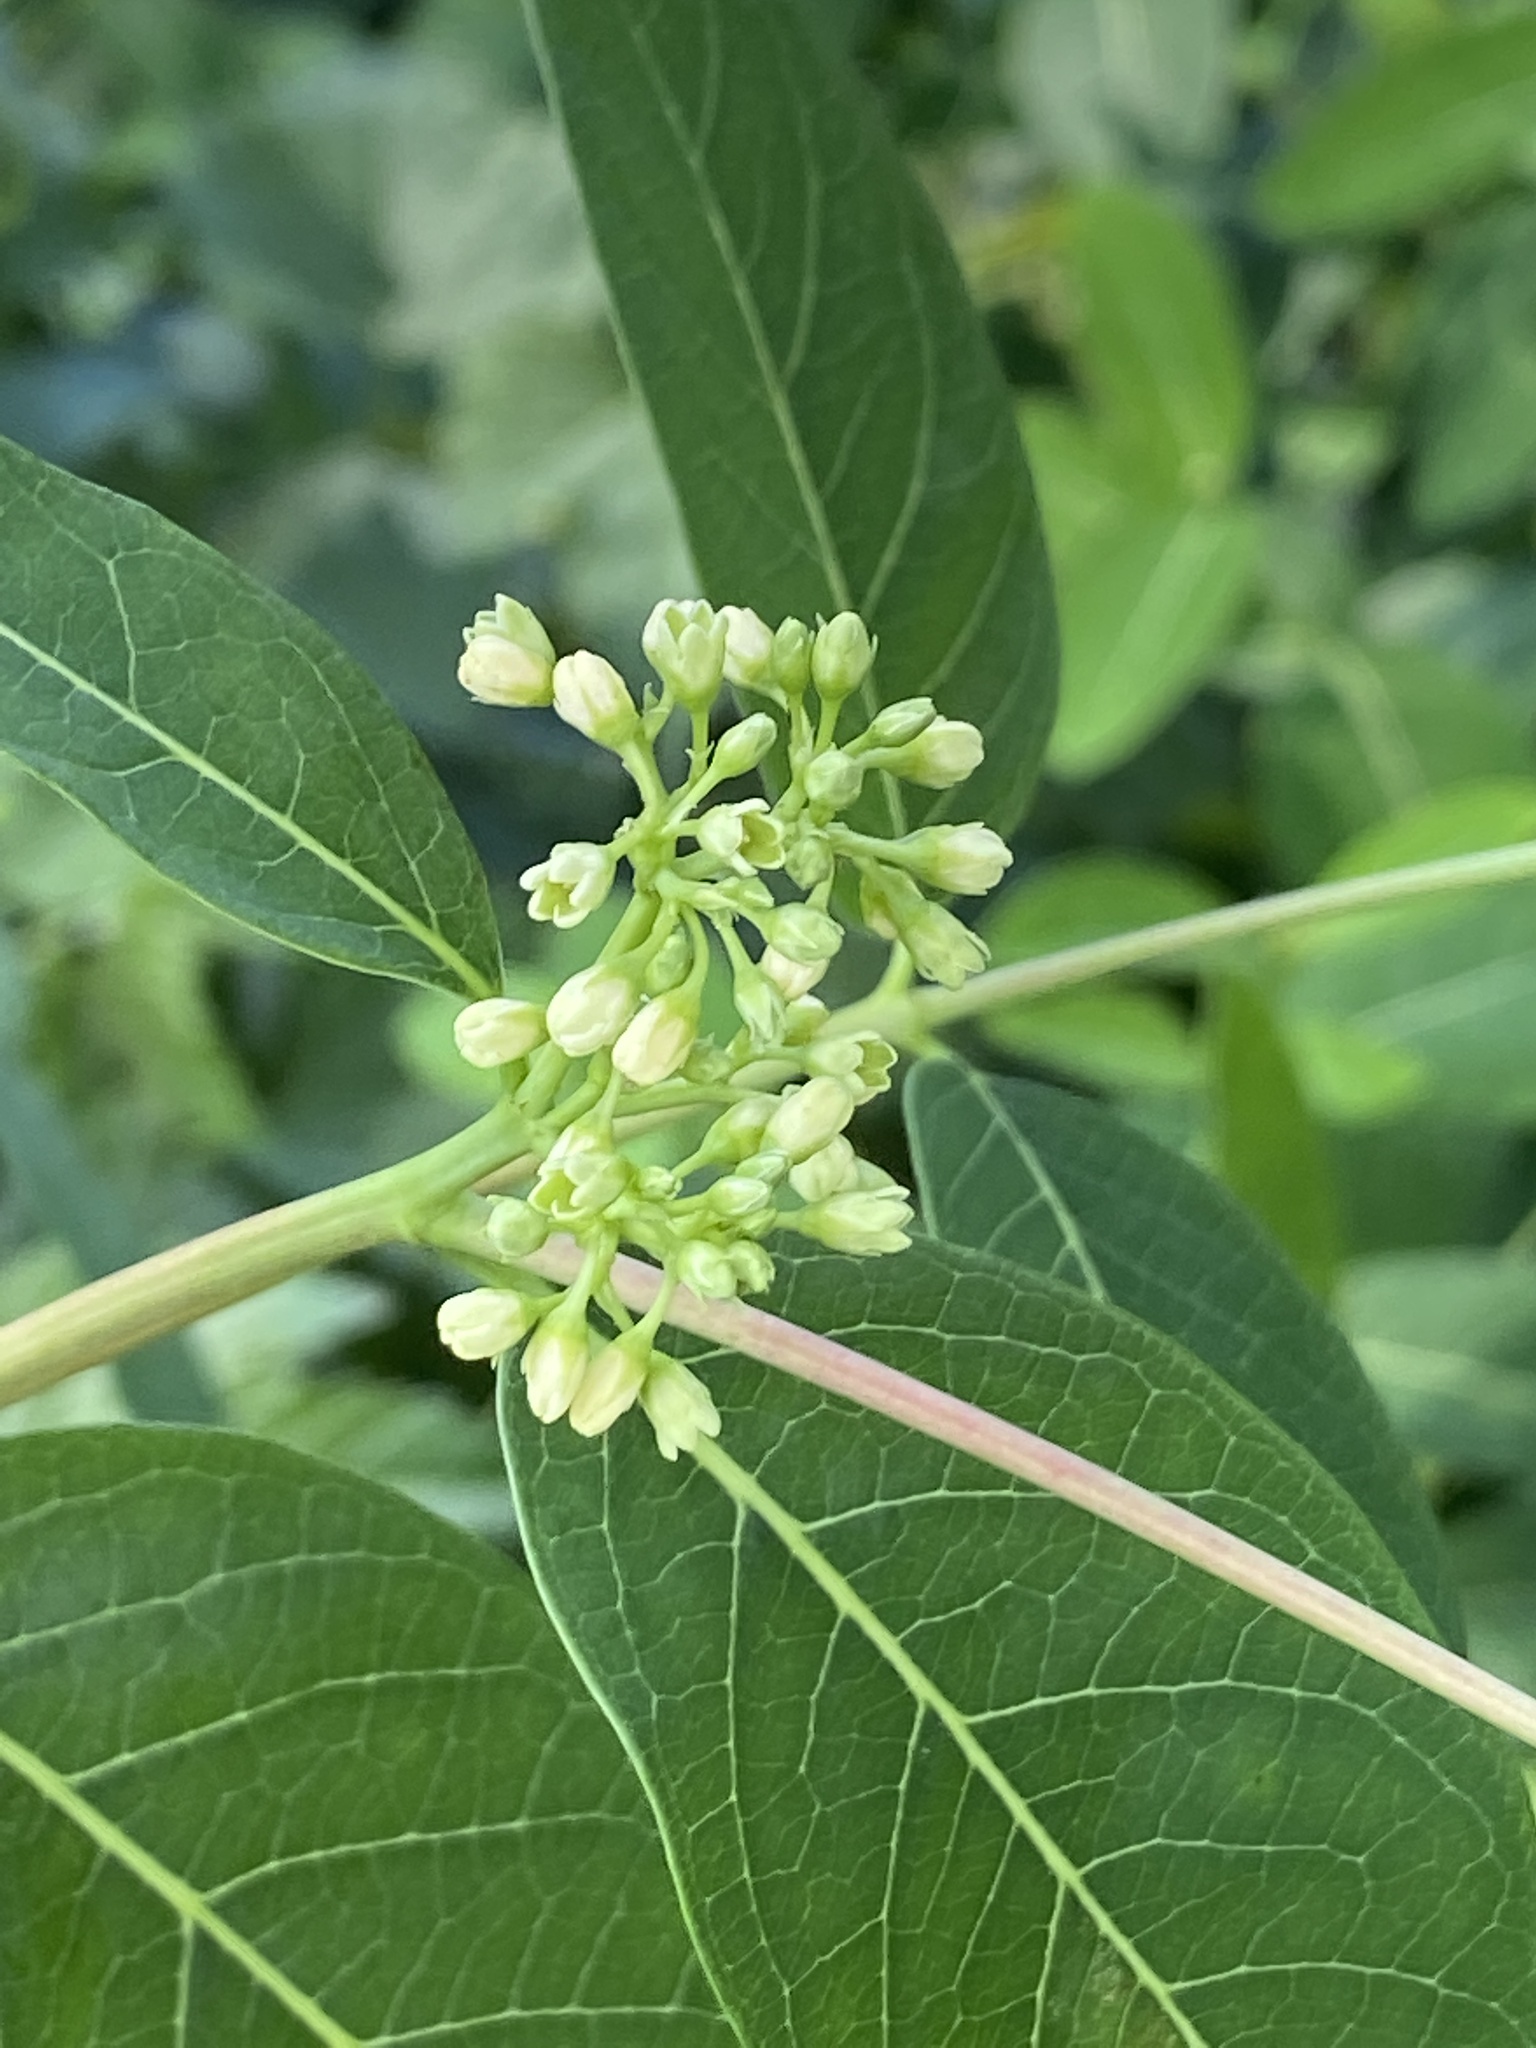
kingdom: Plantae
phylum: Tracheophyta
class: Magnoliopsida
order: Gentianales
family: Apocynaceae
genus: Apocynum
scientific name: Apocynum cannabinum
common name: Hemp dogbane
